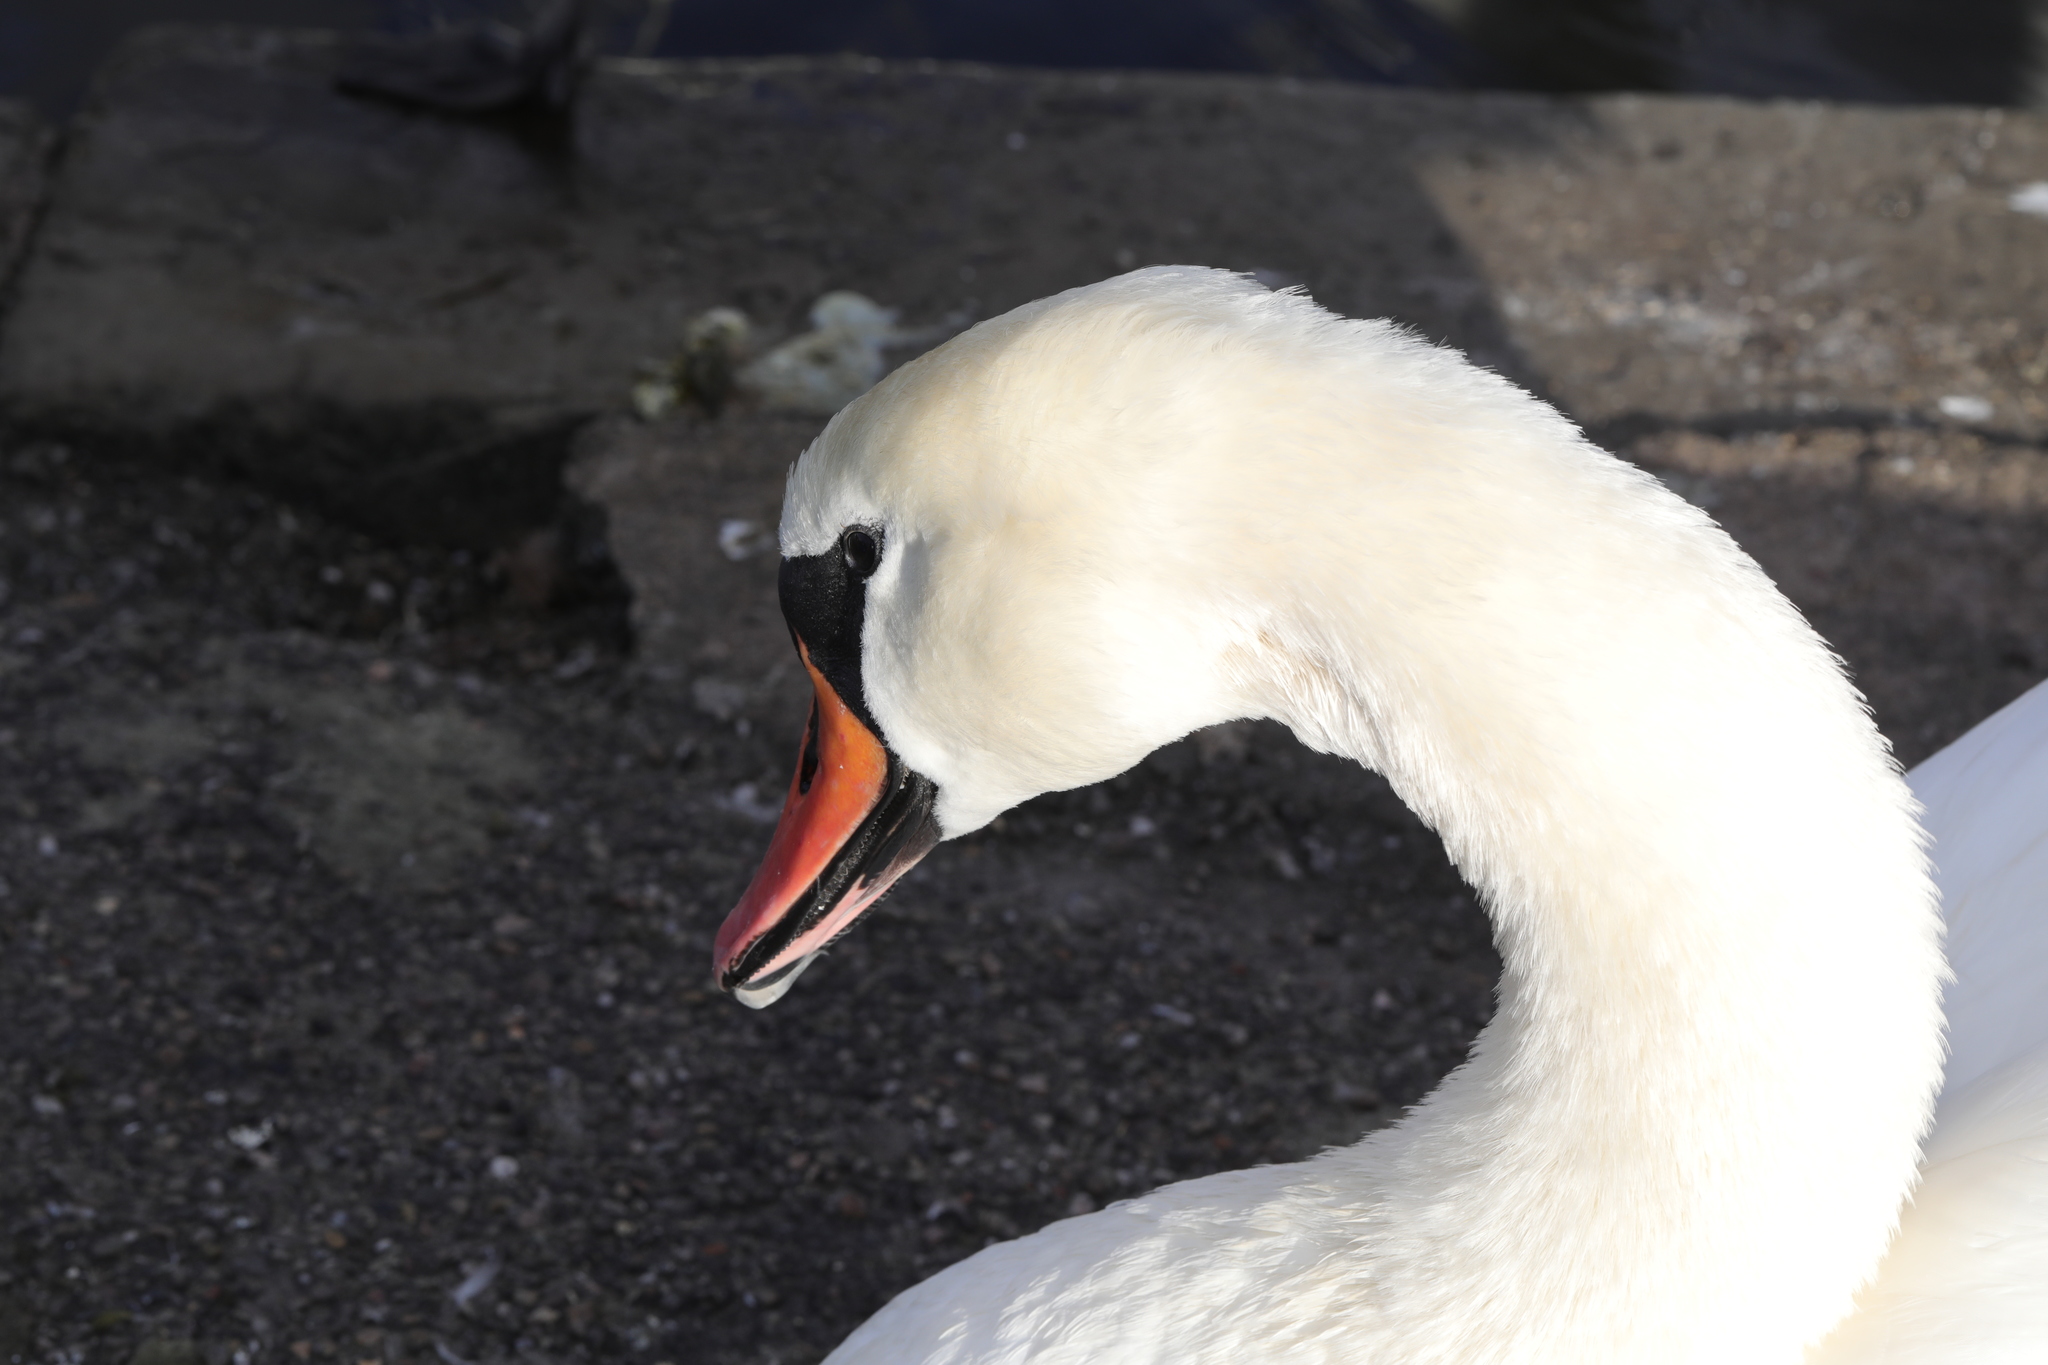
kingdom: Animalia
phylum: Chordata
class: Aves
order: Anseriformes
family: Anatidae
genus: Cygnus
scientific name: Cygnus olor
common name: Mute swan
